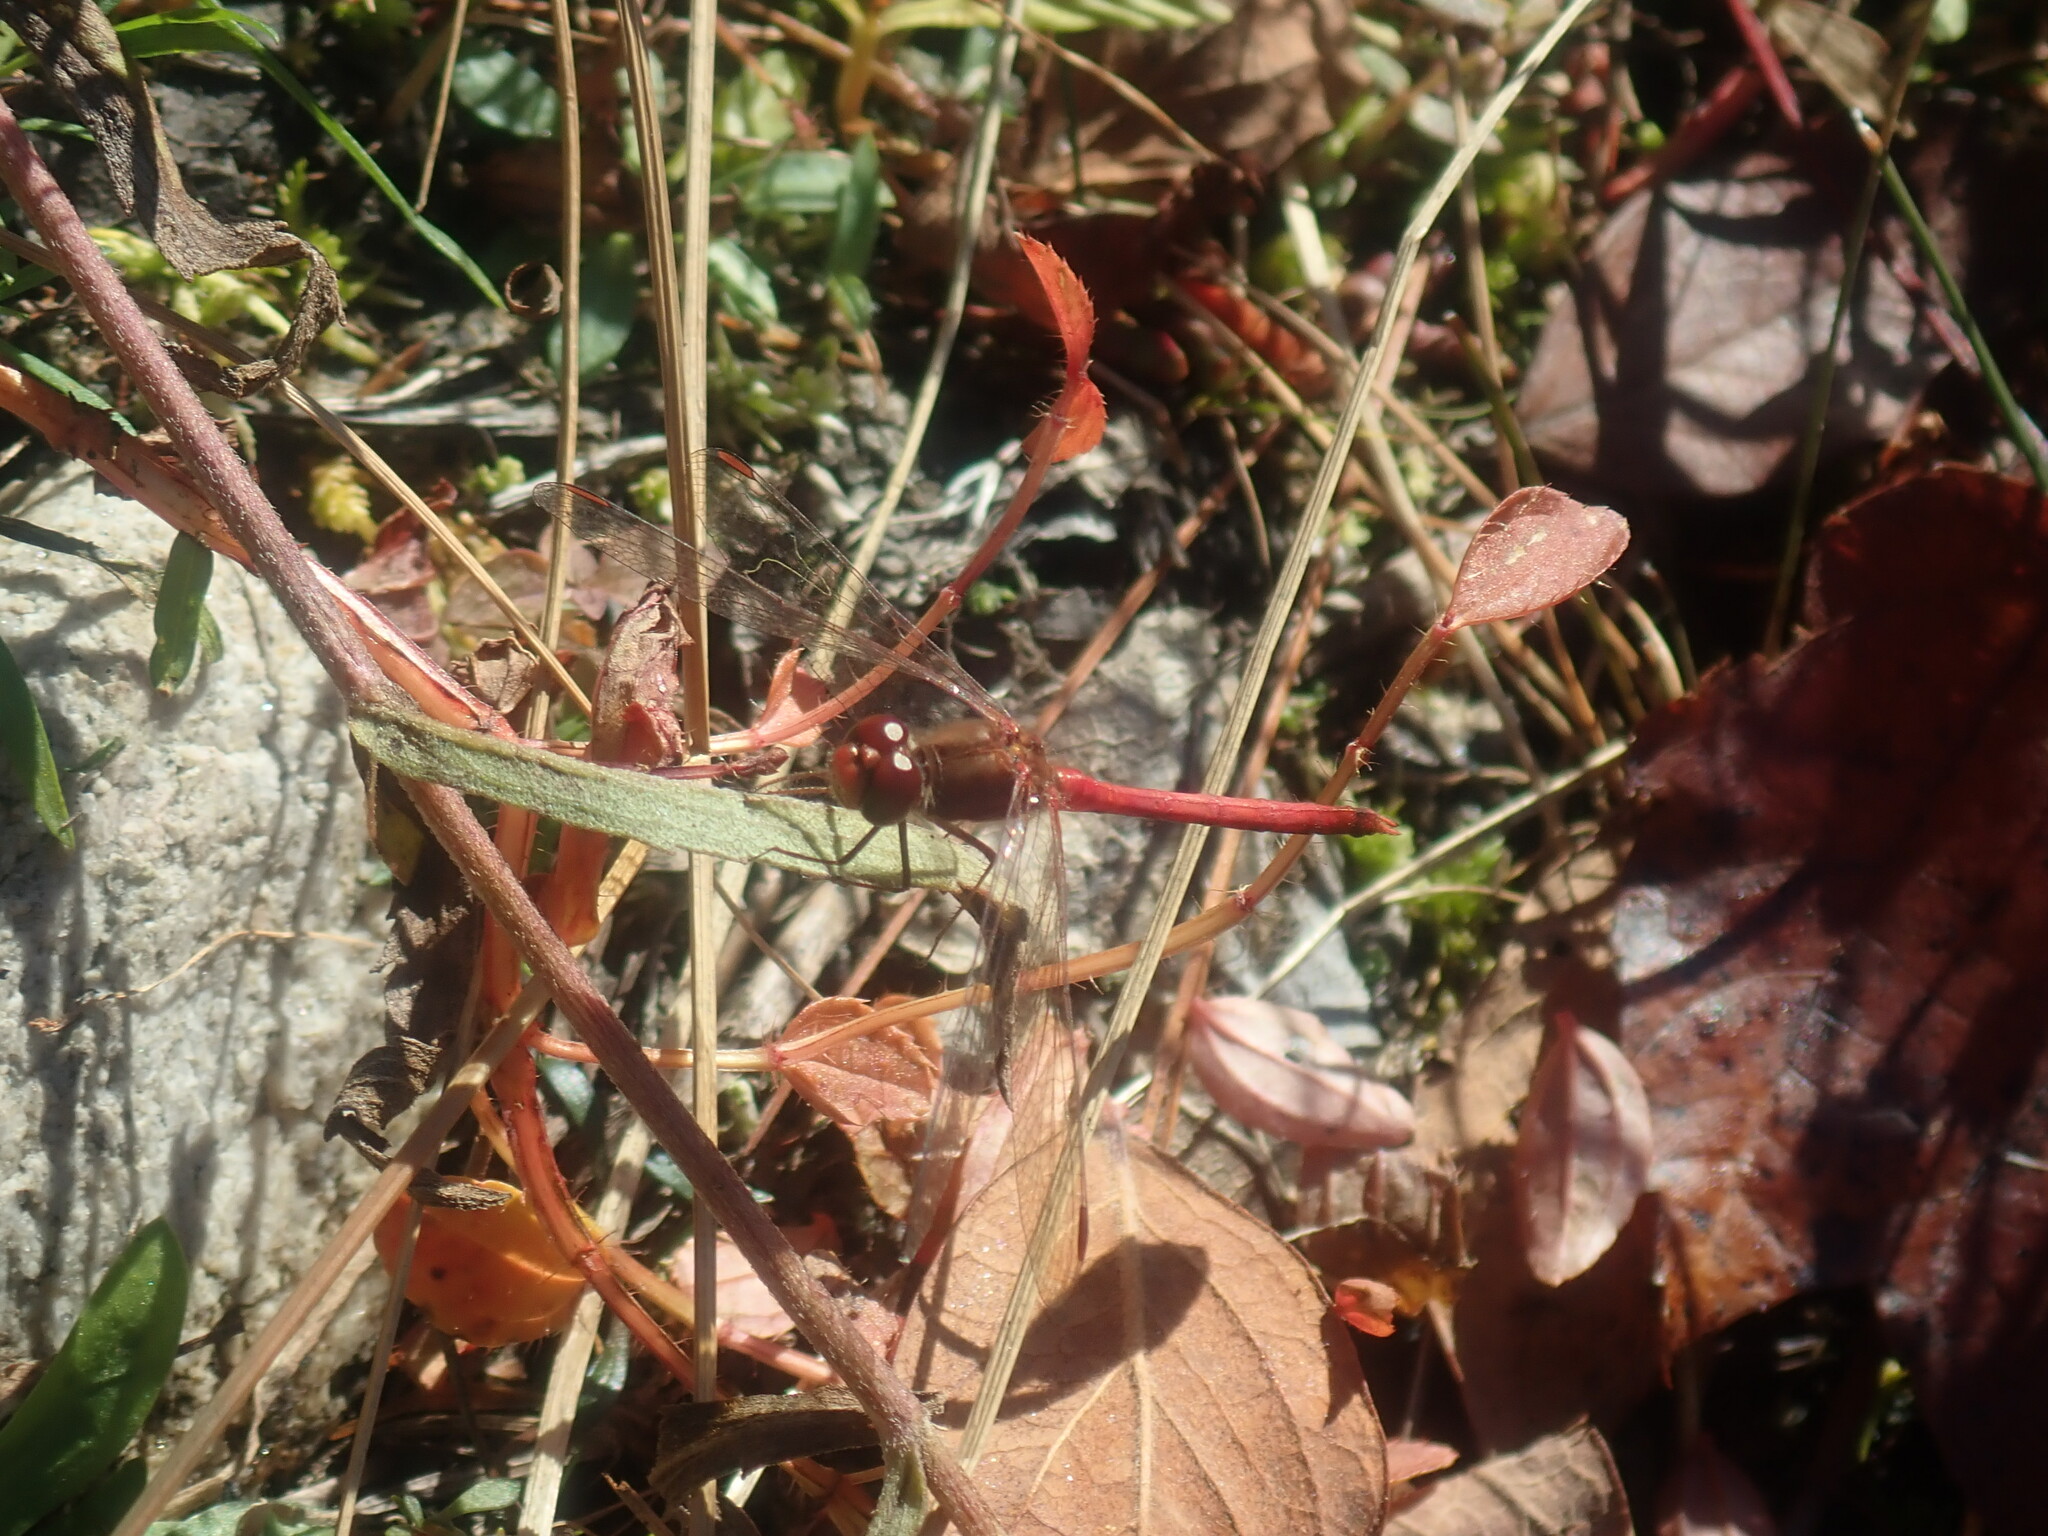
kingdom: Animalia
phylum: Arthropoda
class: Insecta
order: Odonata
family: Libellulidae
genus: Sympetrum
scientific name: Sympetrum vicinum
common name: Autumn meadowhawk
